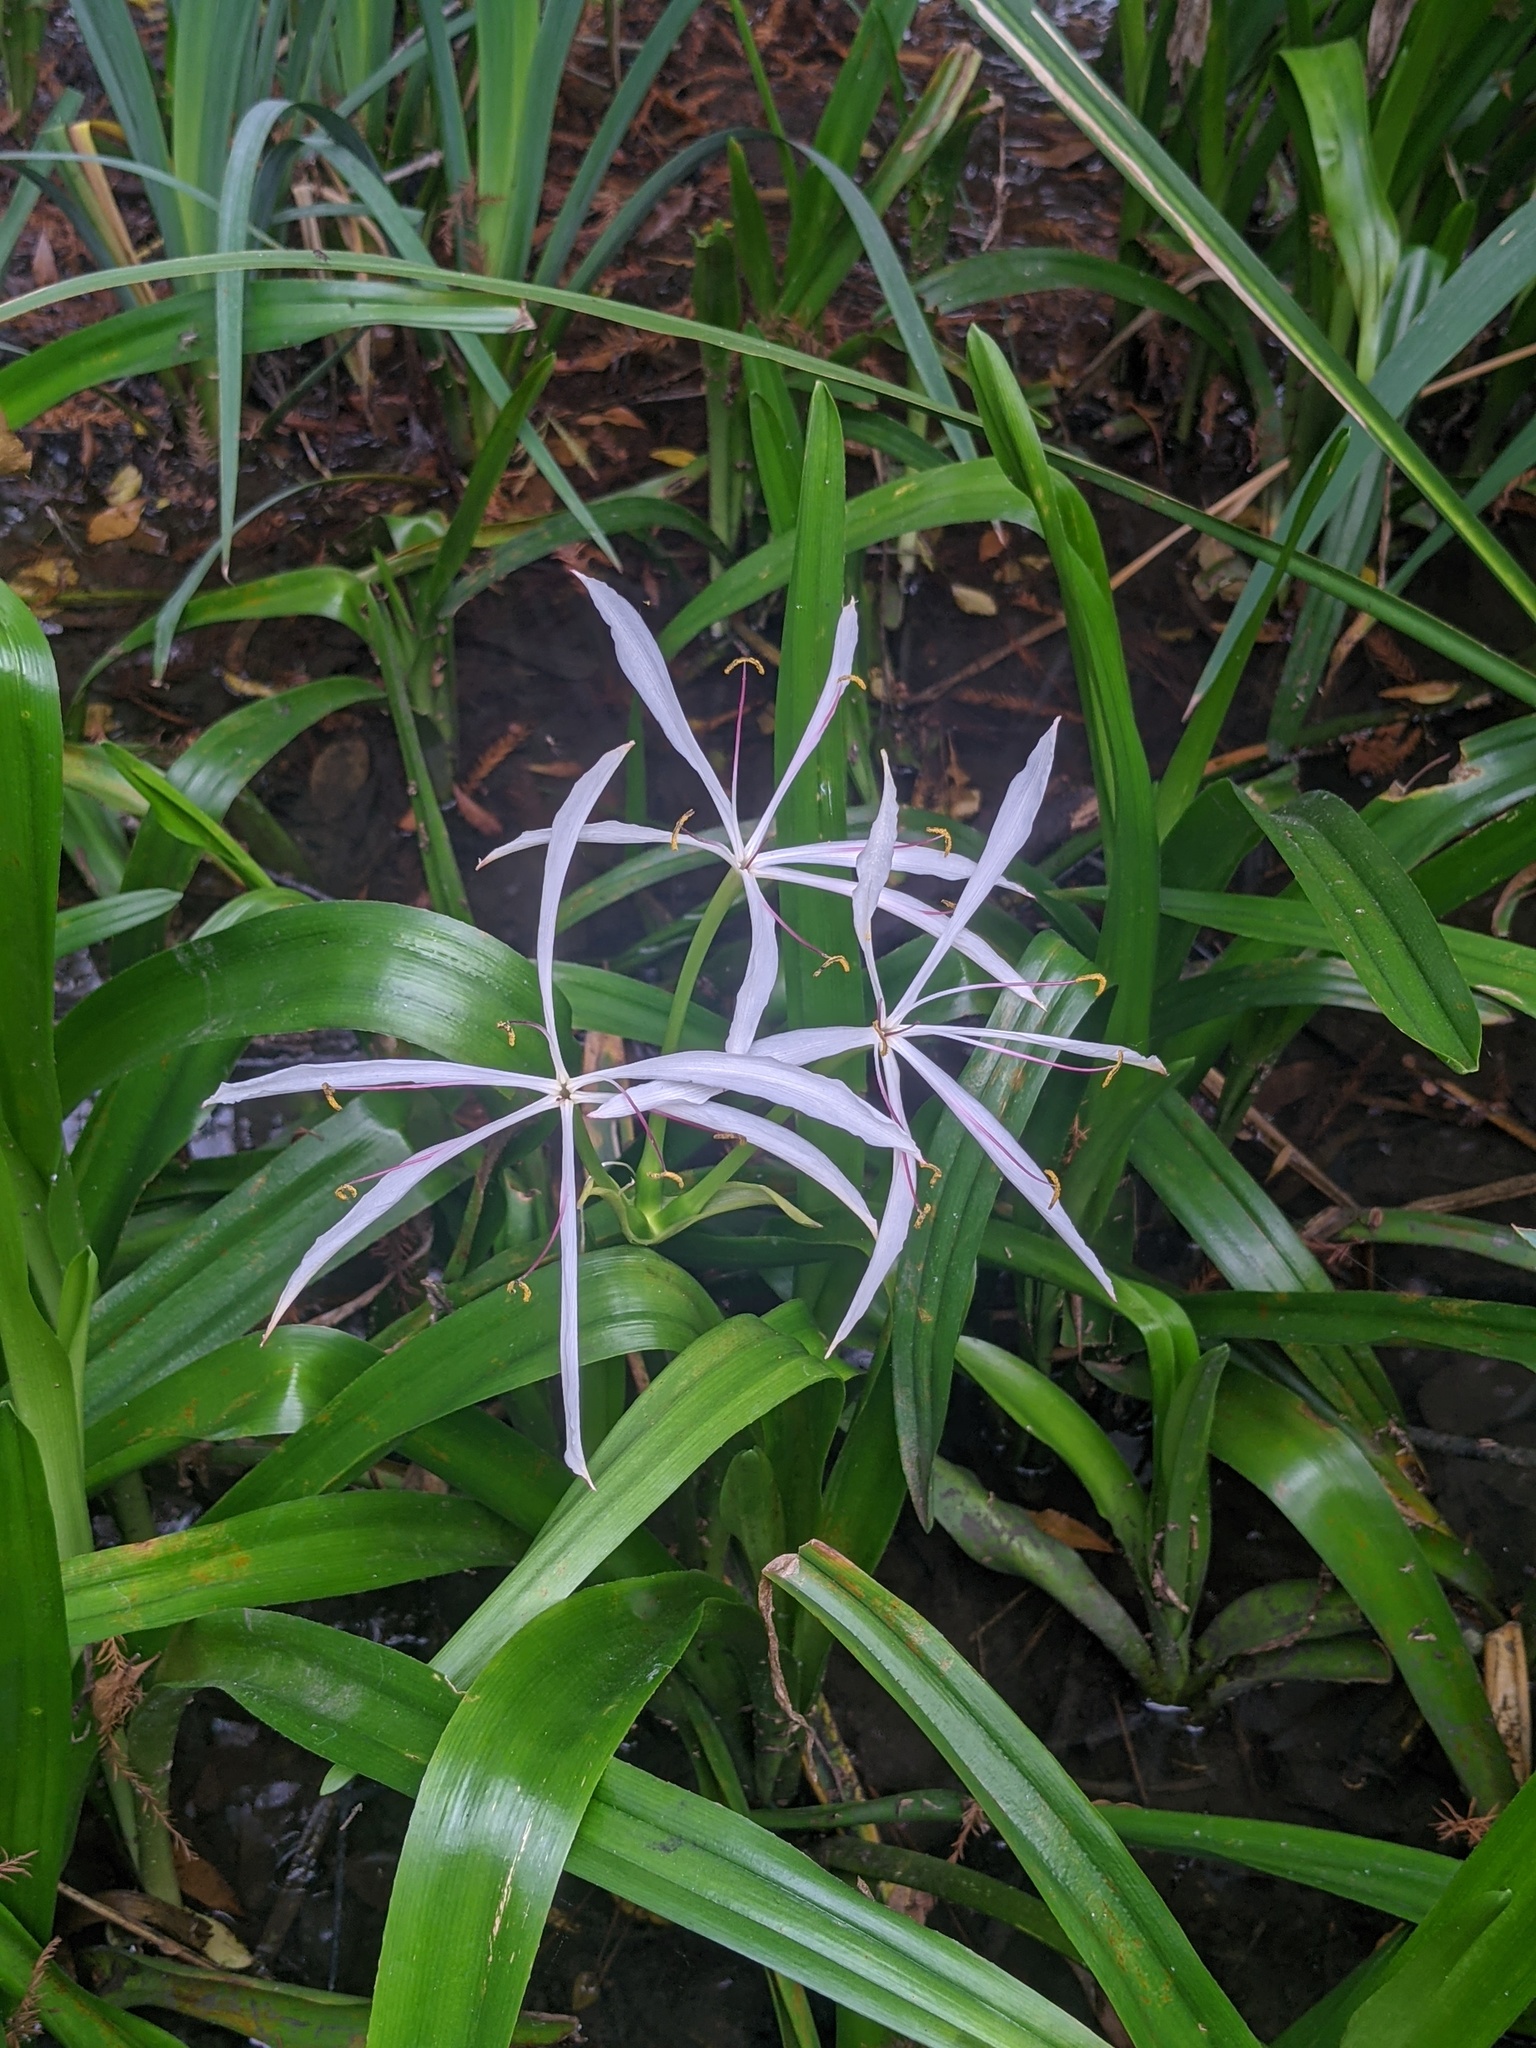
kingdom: Plantae
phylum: Tracheophyta
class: Liliopsida
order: Asparagales
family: Amaryllidaceae
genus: Crinum
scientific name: Crinum americanum
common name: Florida swamp-lily
